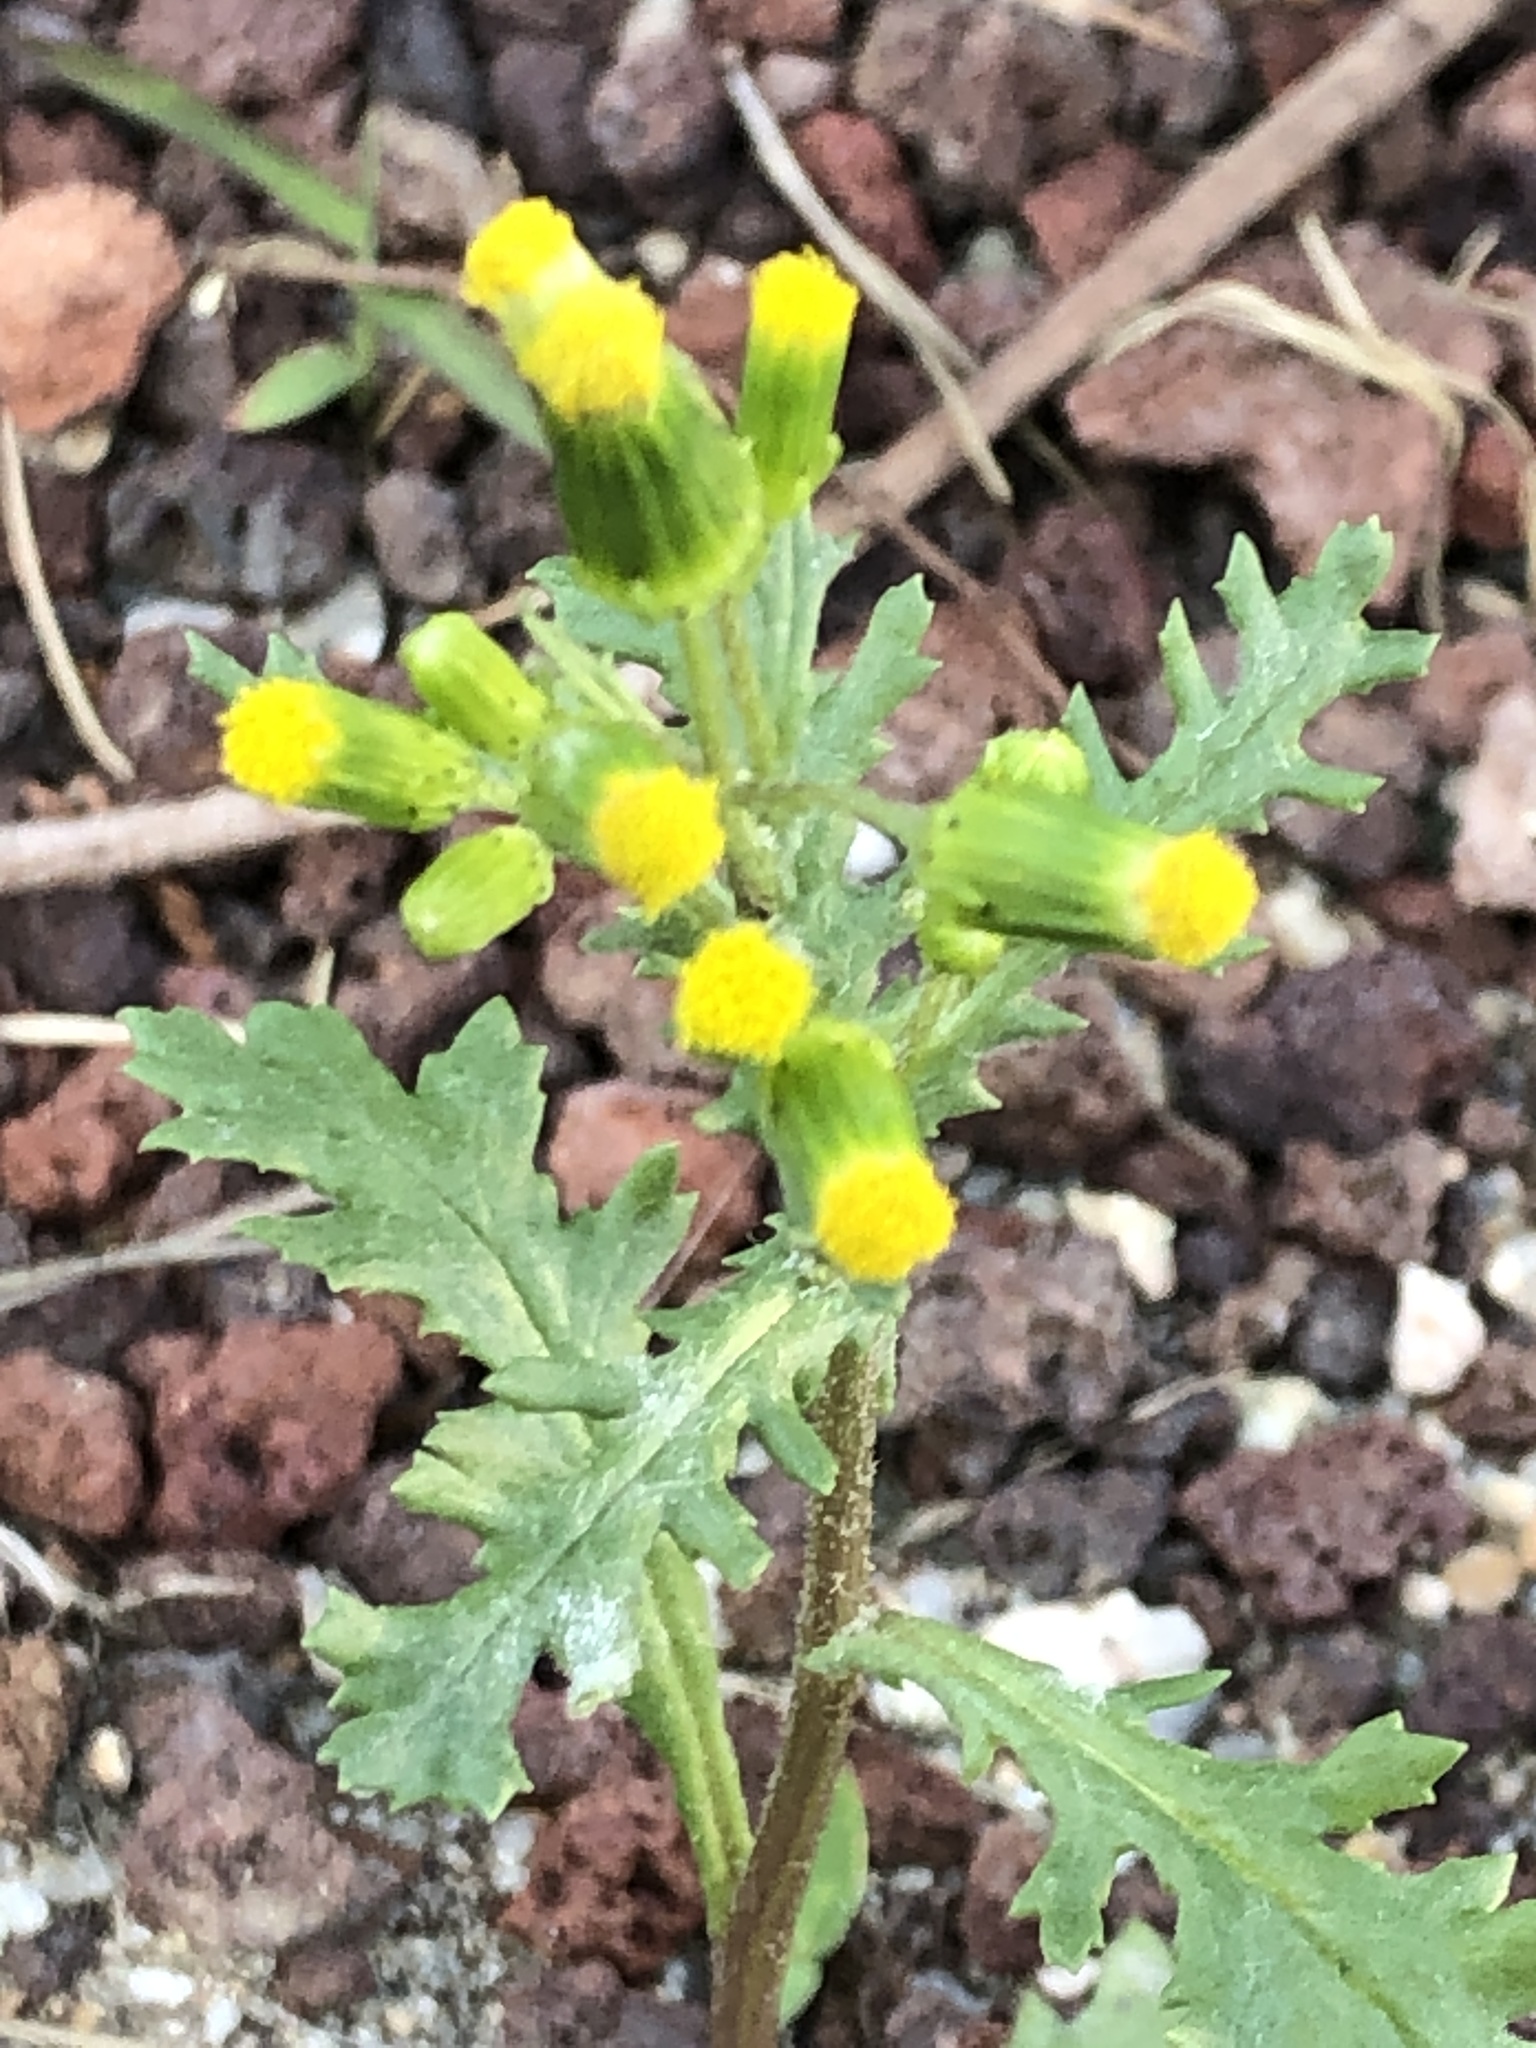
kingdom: Plantae
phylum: Tracheophyta
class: Magnoliopsida
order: Asterales
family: Asteraceae
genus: Senecio
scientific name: Senecio vulgaris
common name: Old-man-in-the-spring
